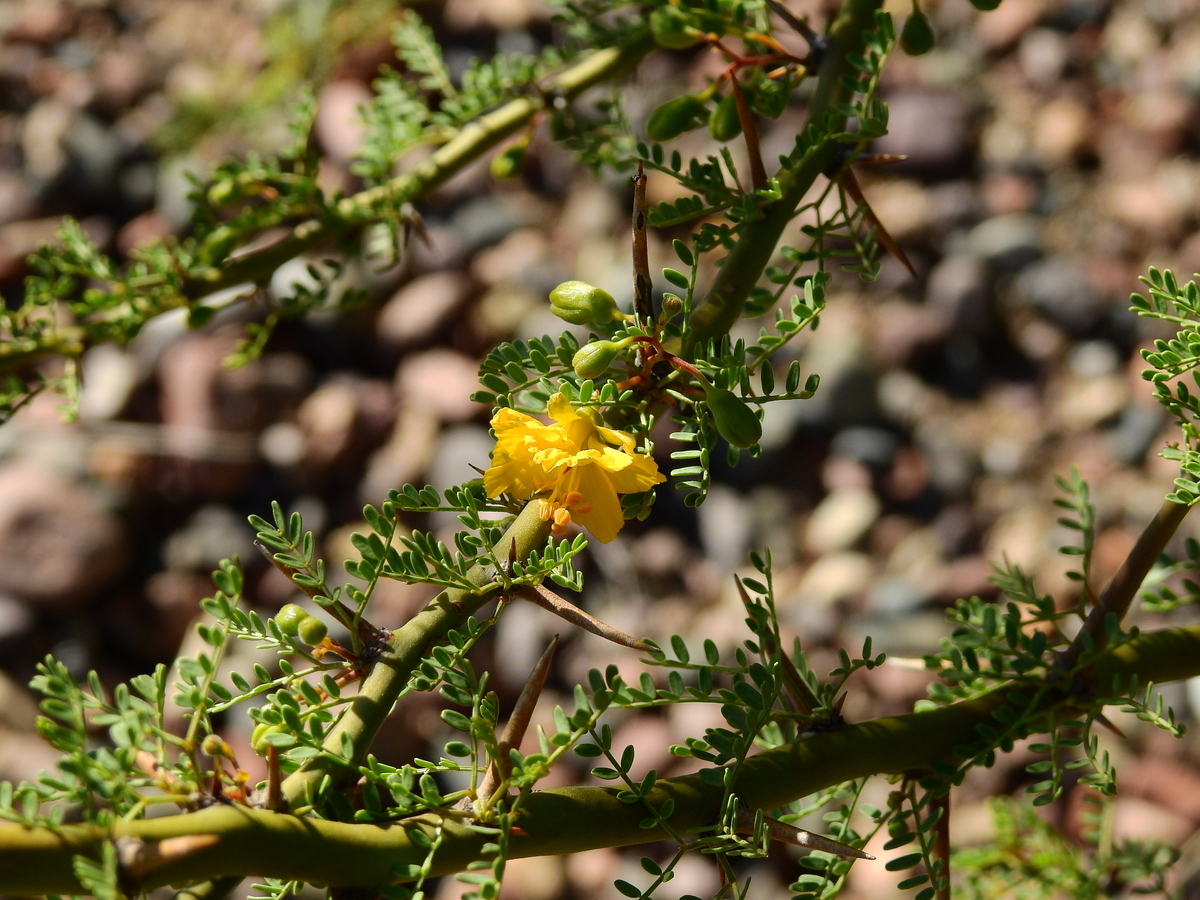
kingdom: Plantae
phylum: Tracheophyta
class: Magnoliopsida
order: Fabales
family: Fabaceae
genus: Parkinsonia
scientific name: Parkinsonia praecox
